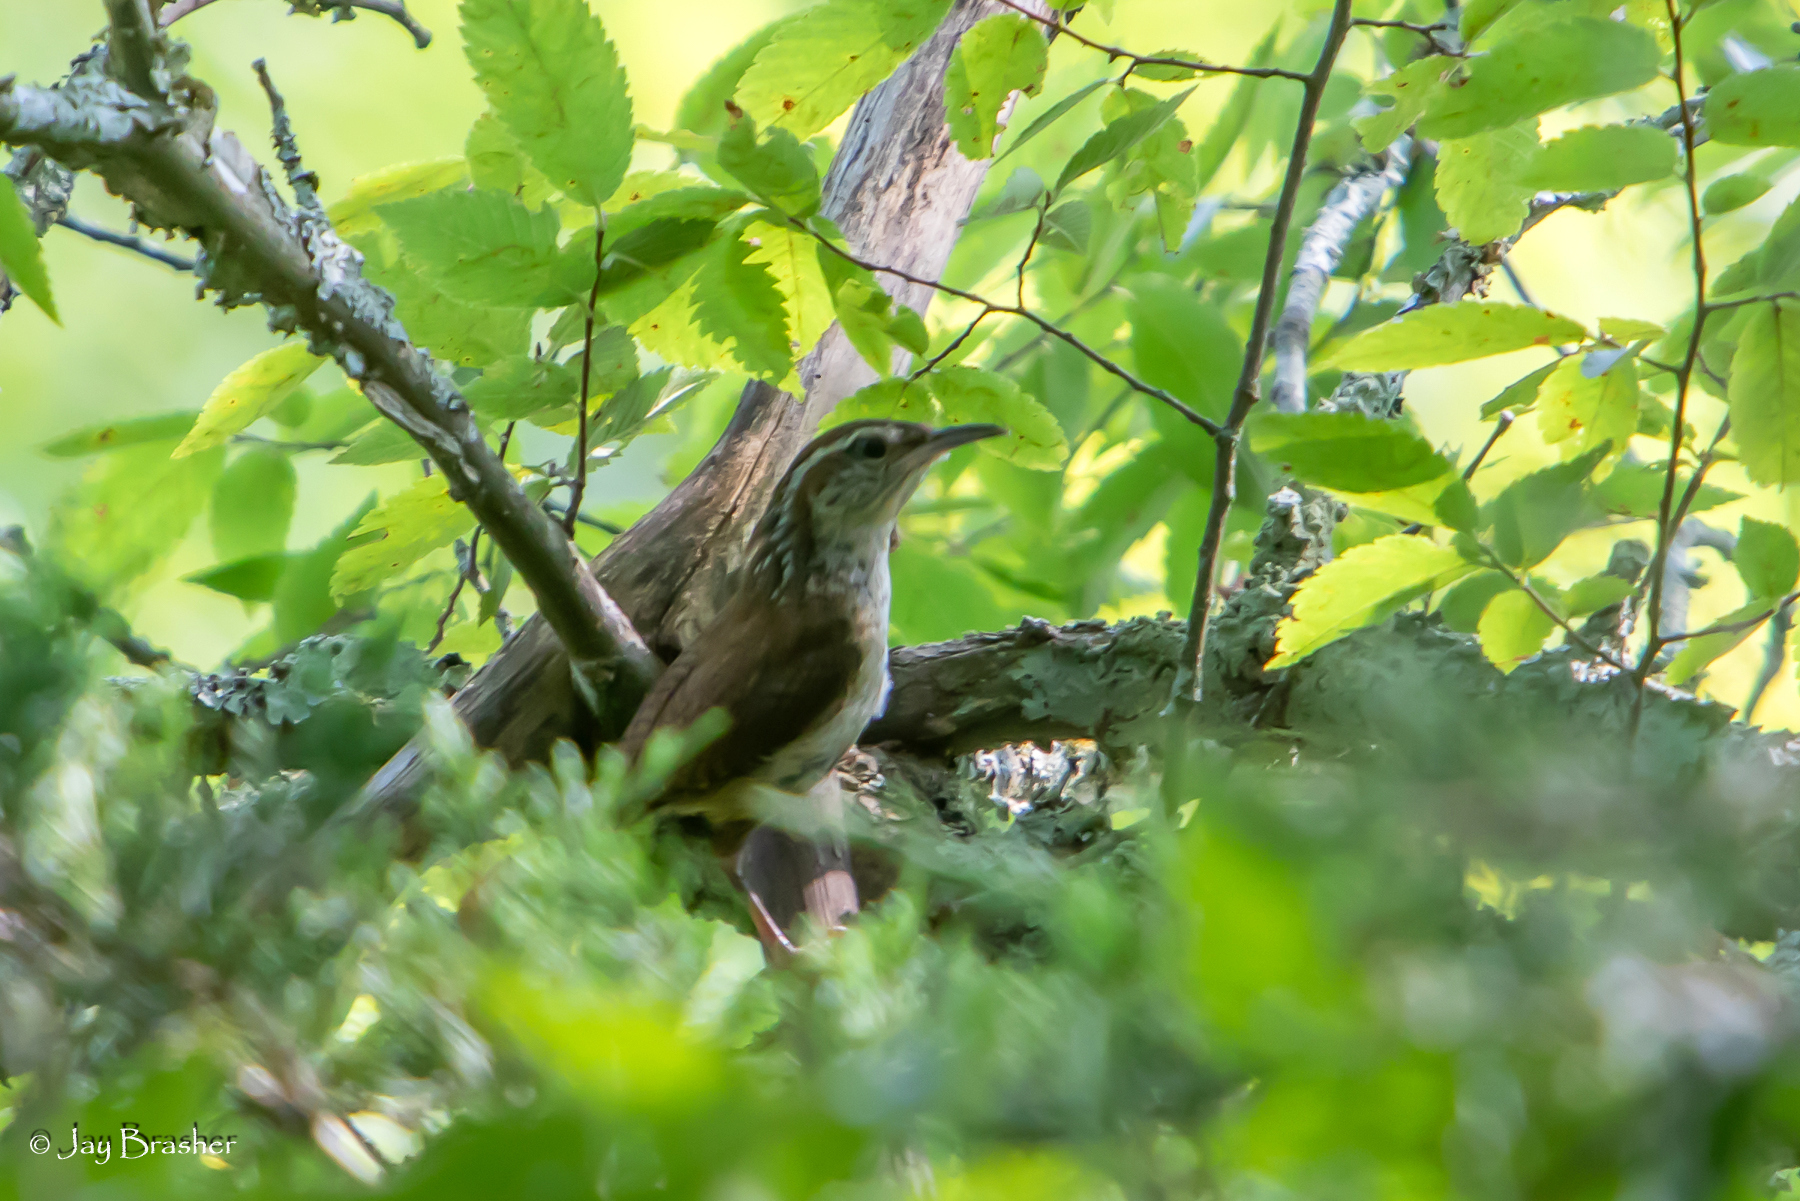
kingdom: Animalia
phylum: Chordata
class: Aves
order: Passeriformes
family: Troglodytidae
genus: Thryothorus
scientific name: Thryothorus ludovicianus
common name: Carolina wren
